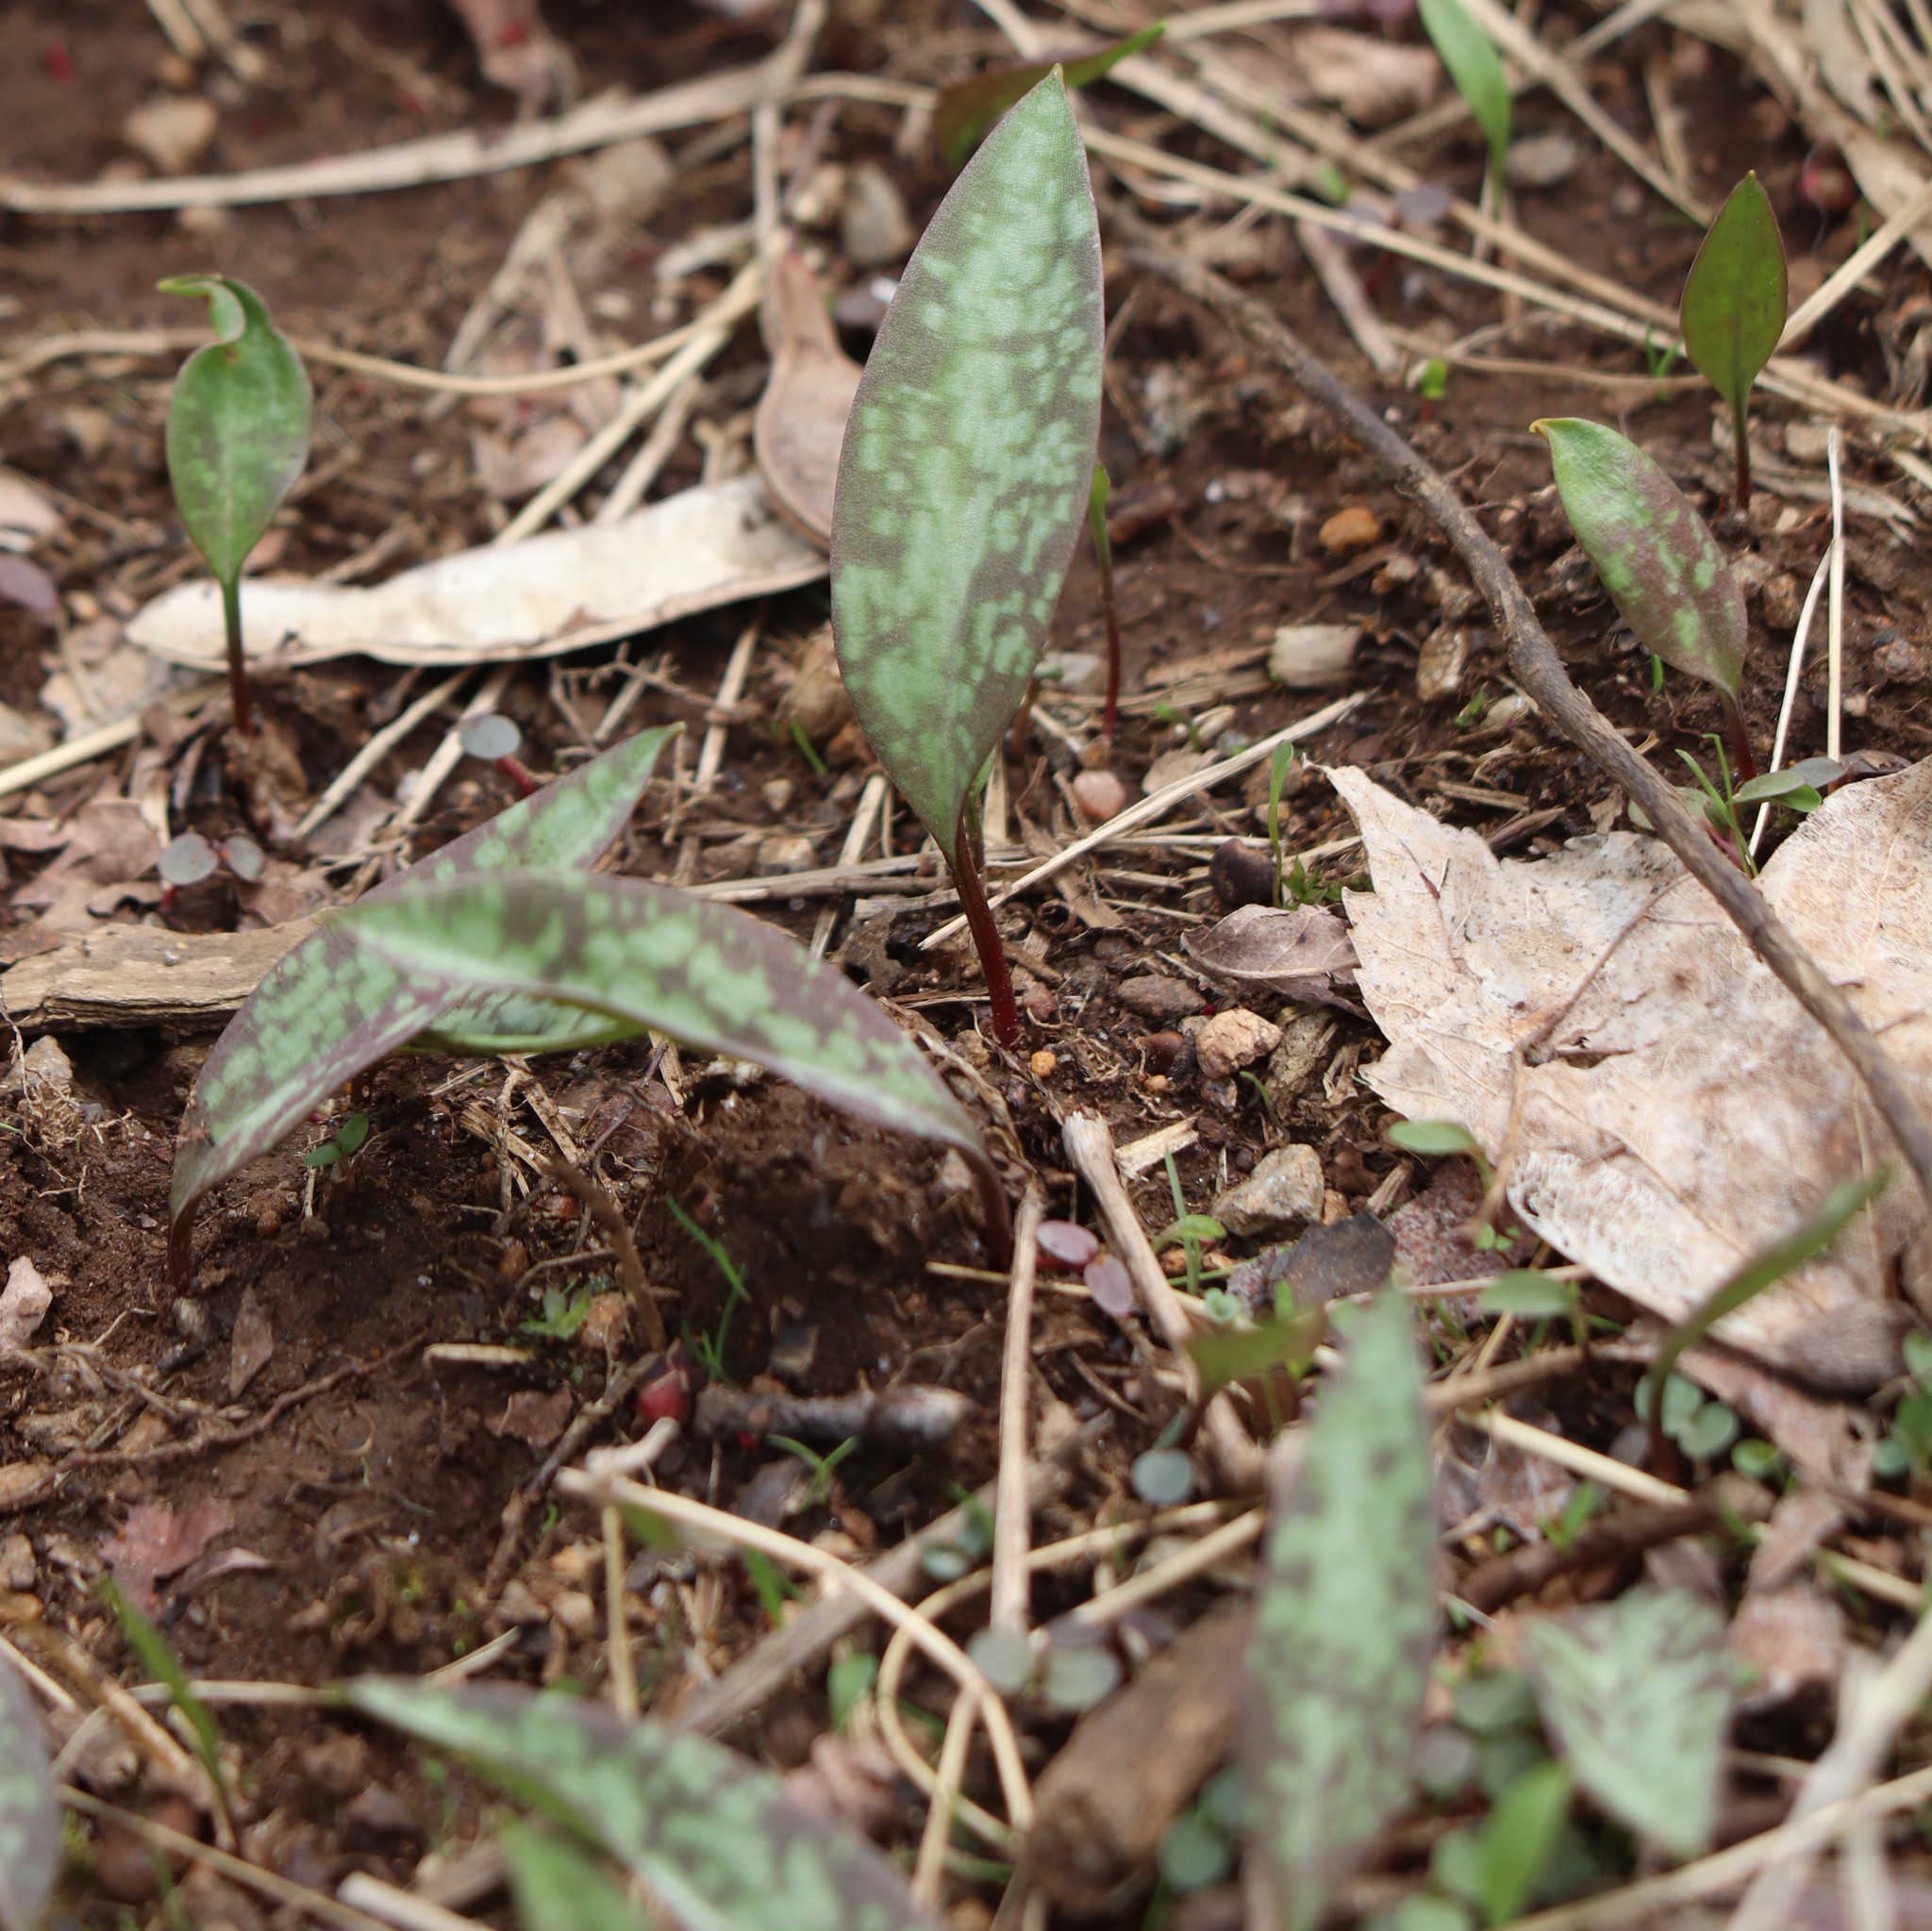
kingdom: Plantae
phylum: Tracheophyta
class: Liliopsida
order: Liliales
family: Liliaceae
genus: Erythronium
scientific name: Erythronium americanum
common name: Yellow adder's-tongue
